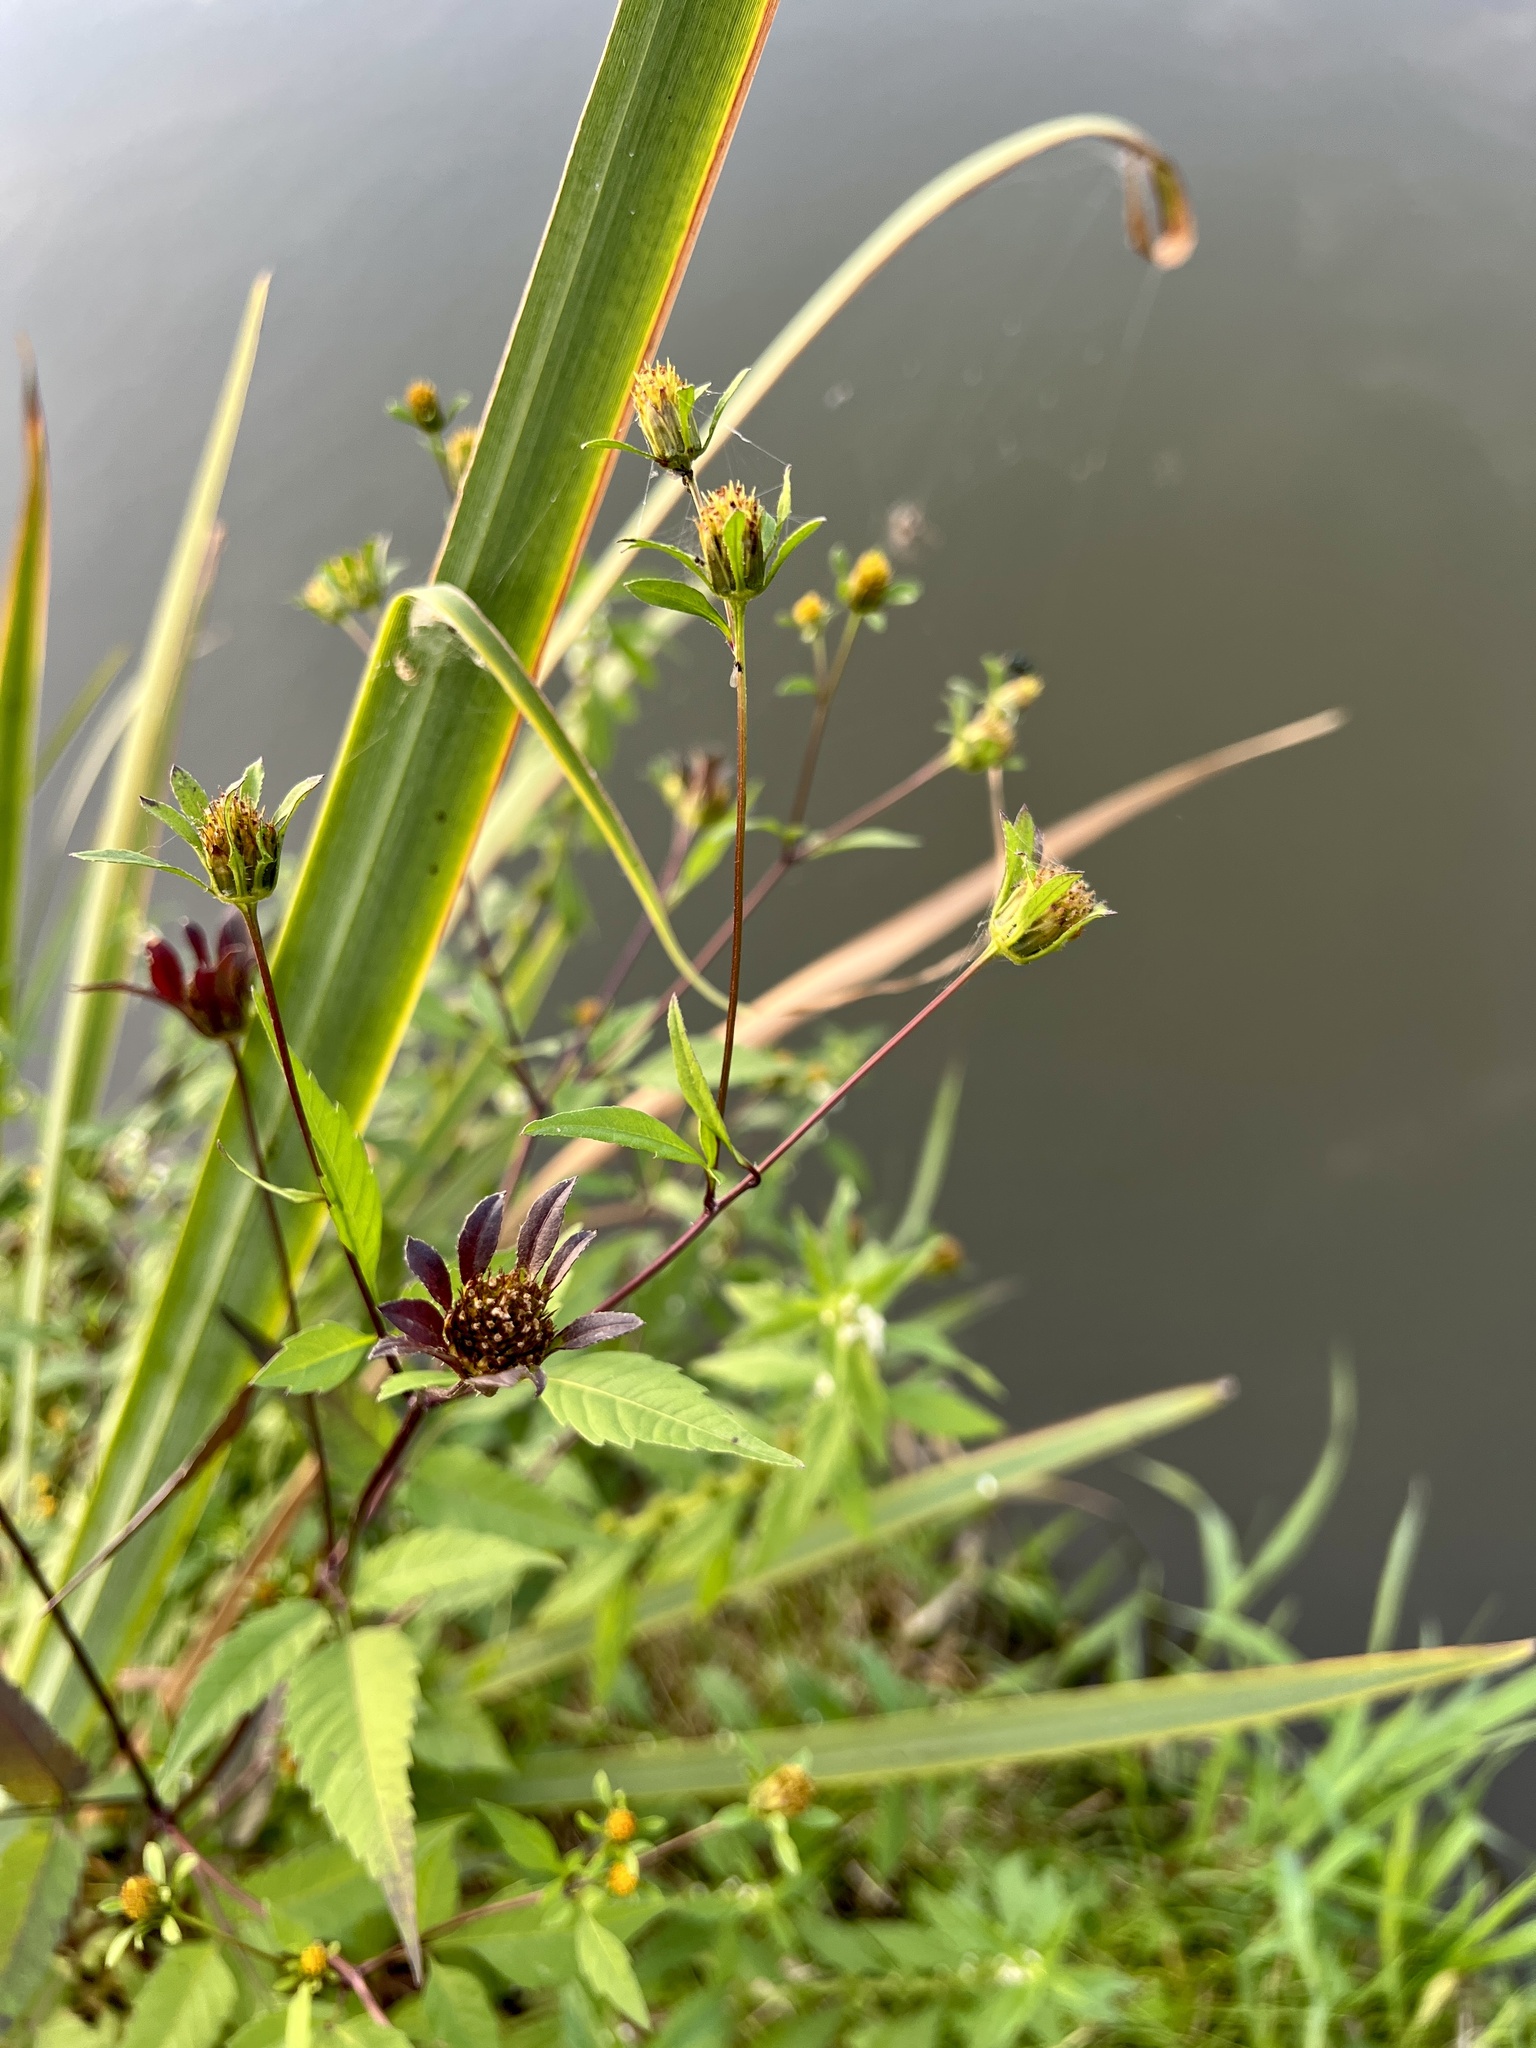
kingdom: Plantae
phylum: Tracheophyta
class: Magnoliopsida
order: Asterales
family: Asteraceae
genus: Bidens
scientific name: Bidens frondosa
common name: Beggarticks
